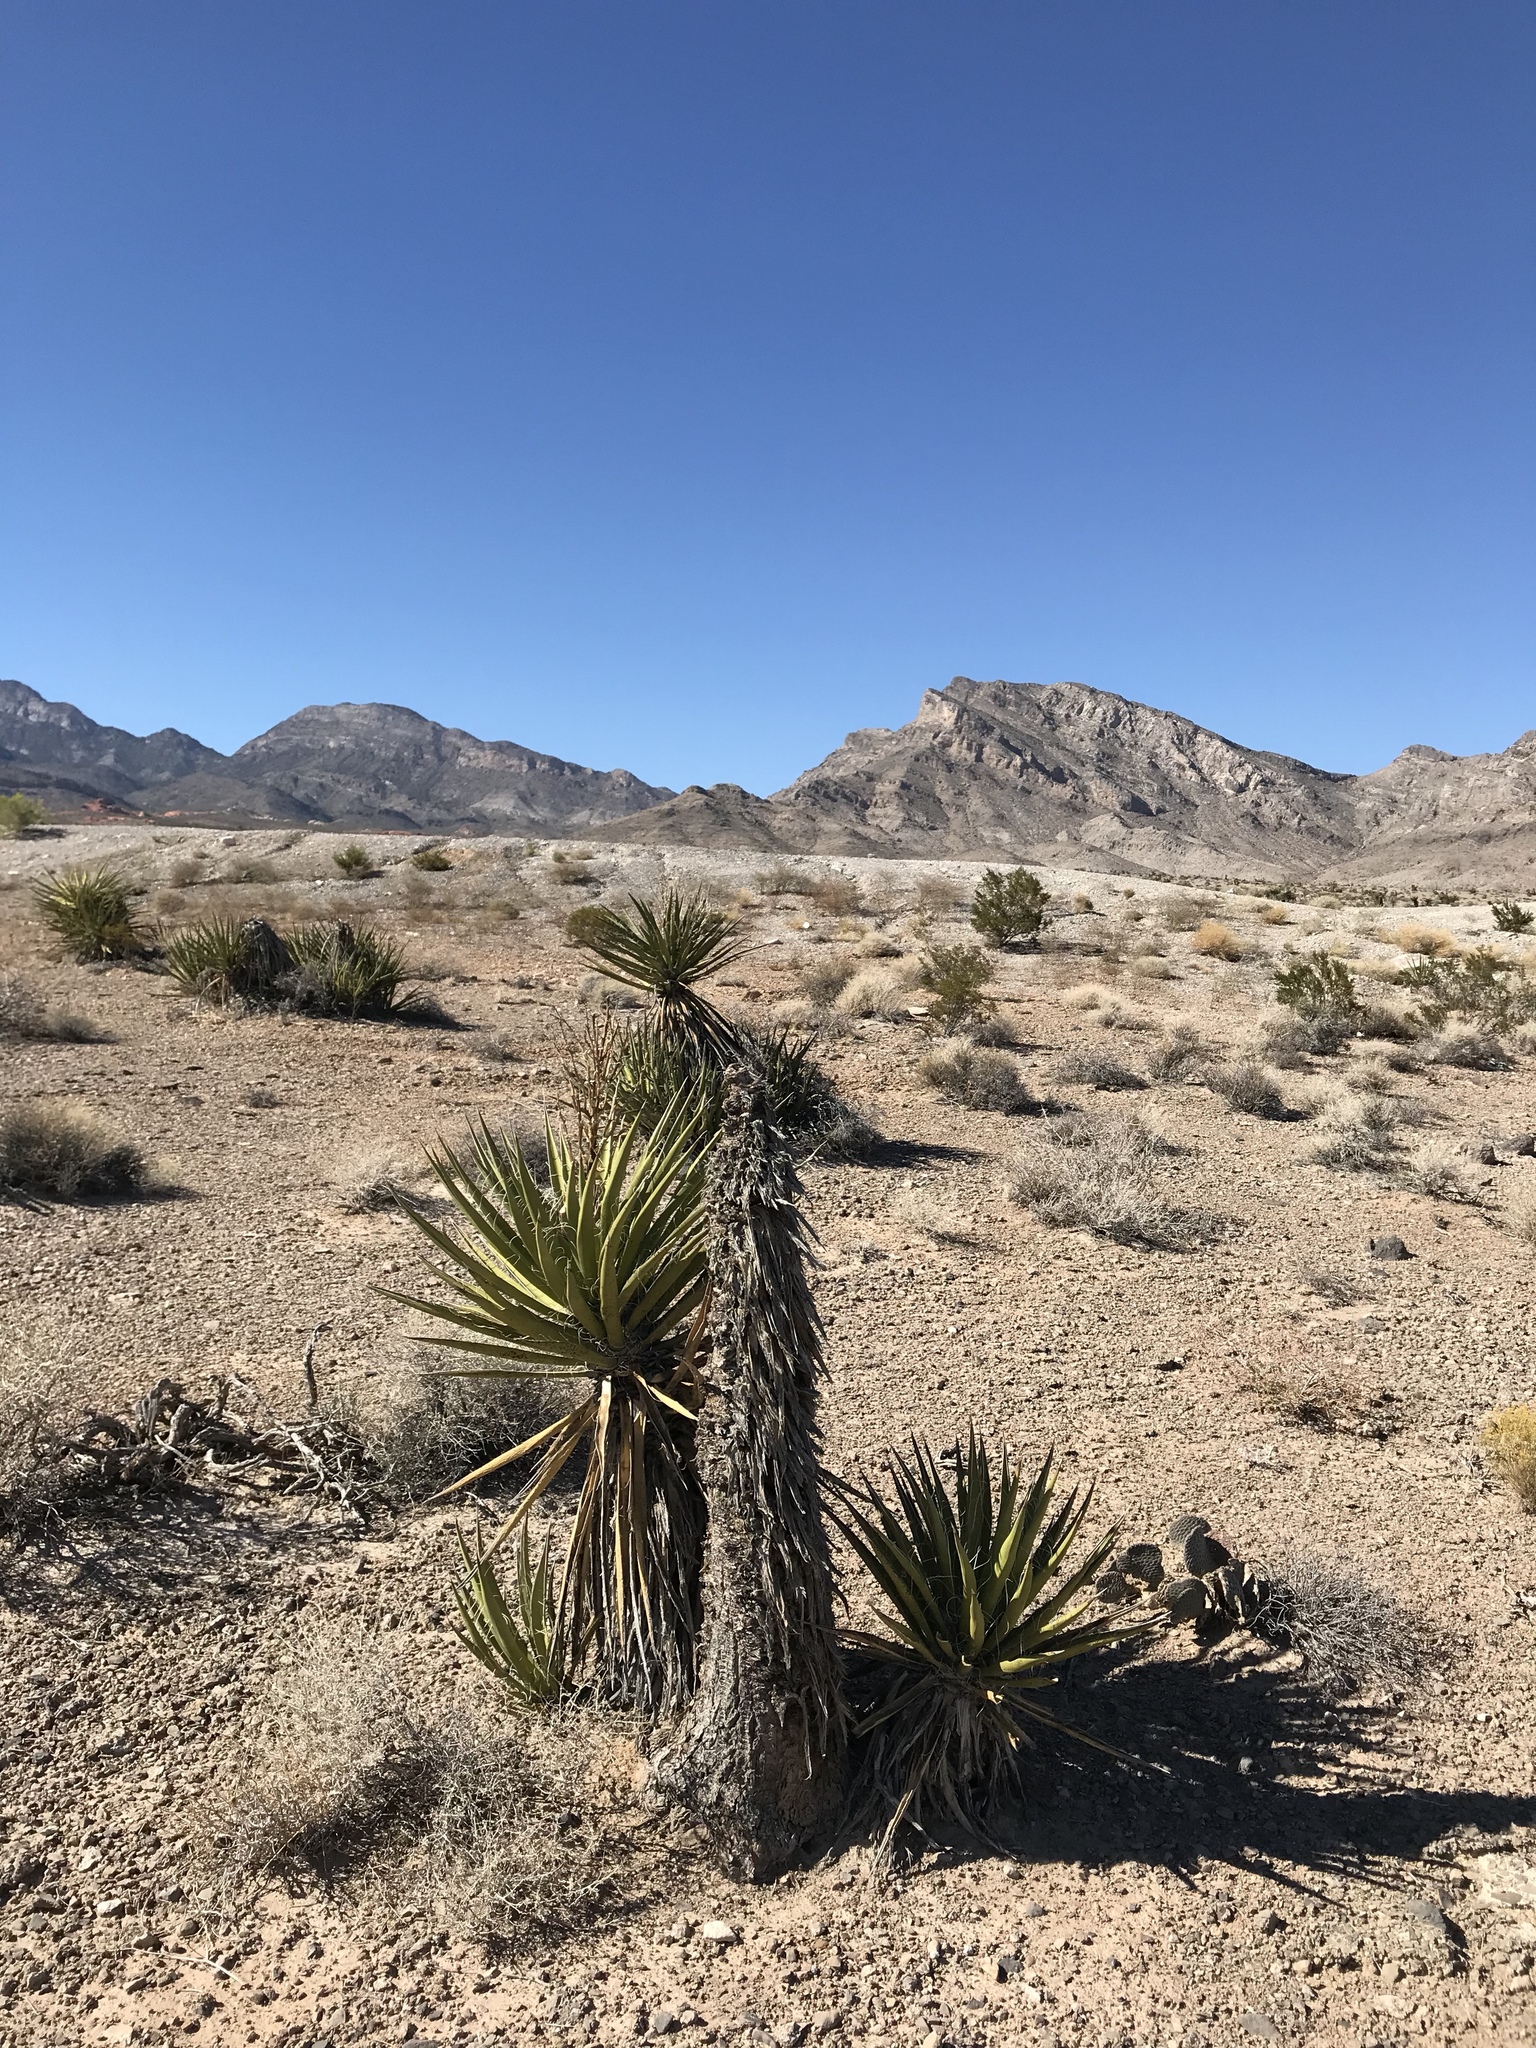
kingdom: Plantae
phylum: Tracheophyta
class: Liliopsida
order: Asparagales
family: Asparagaceae
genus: Yucca
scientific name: Yucca schidigera
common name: Mojave yucca
